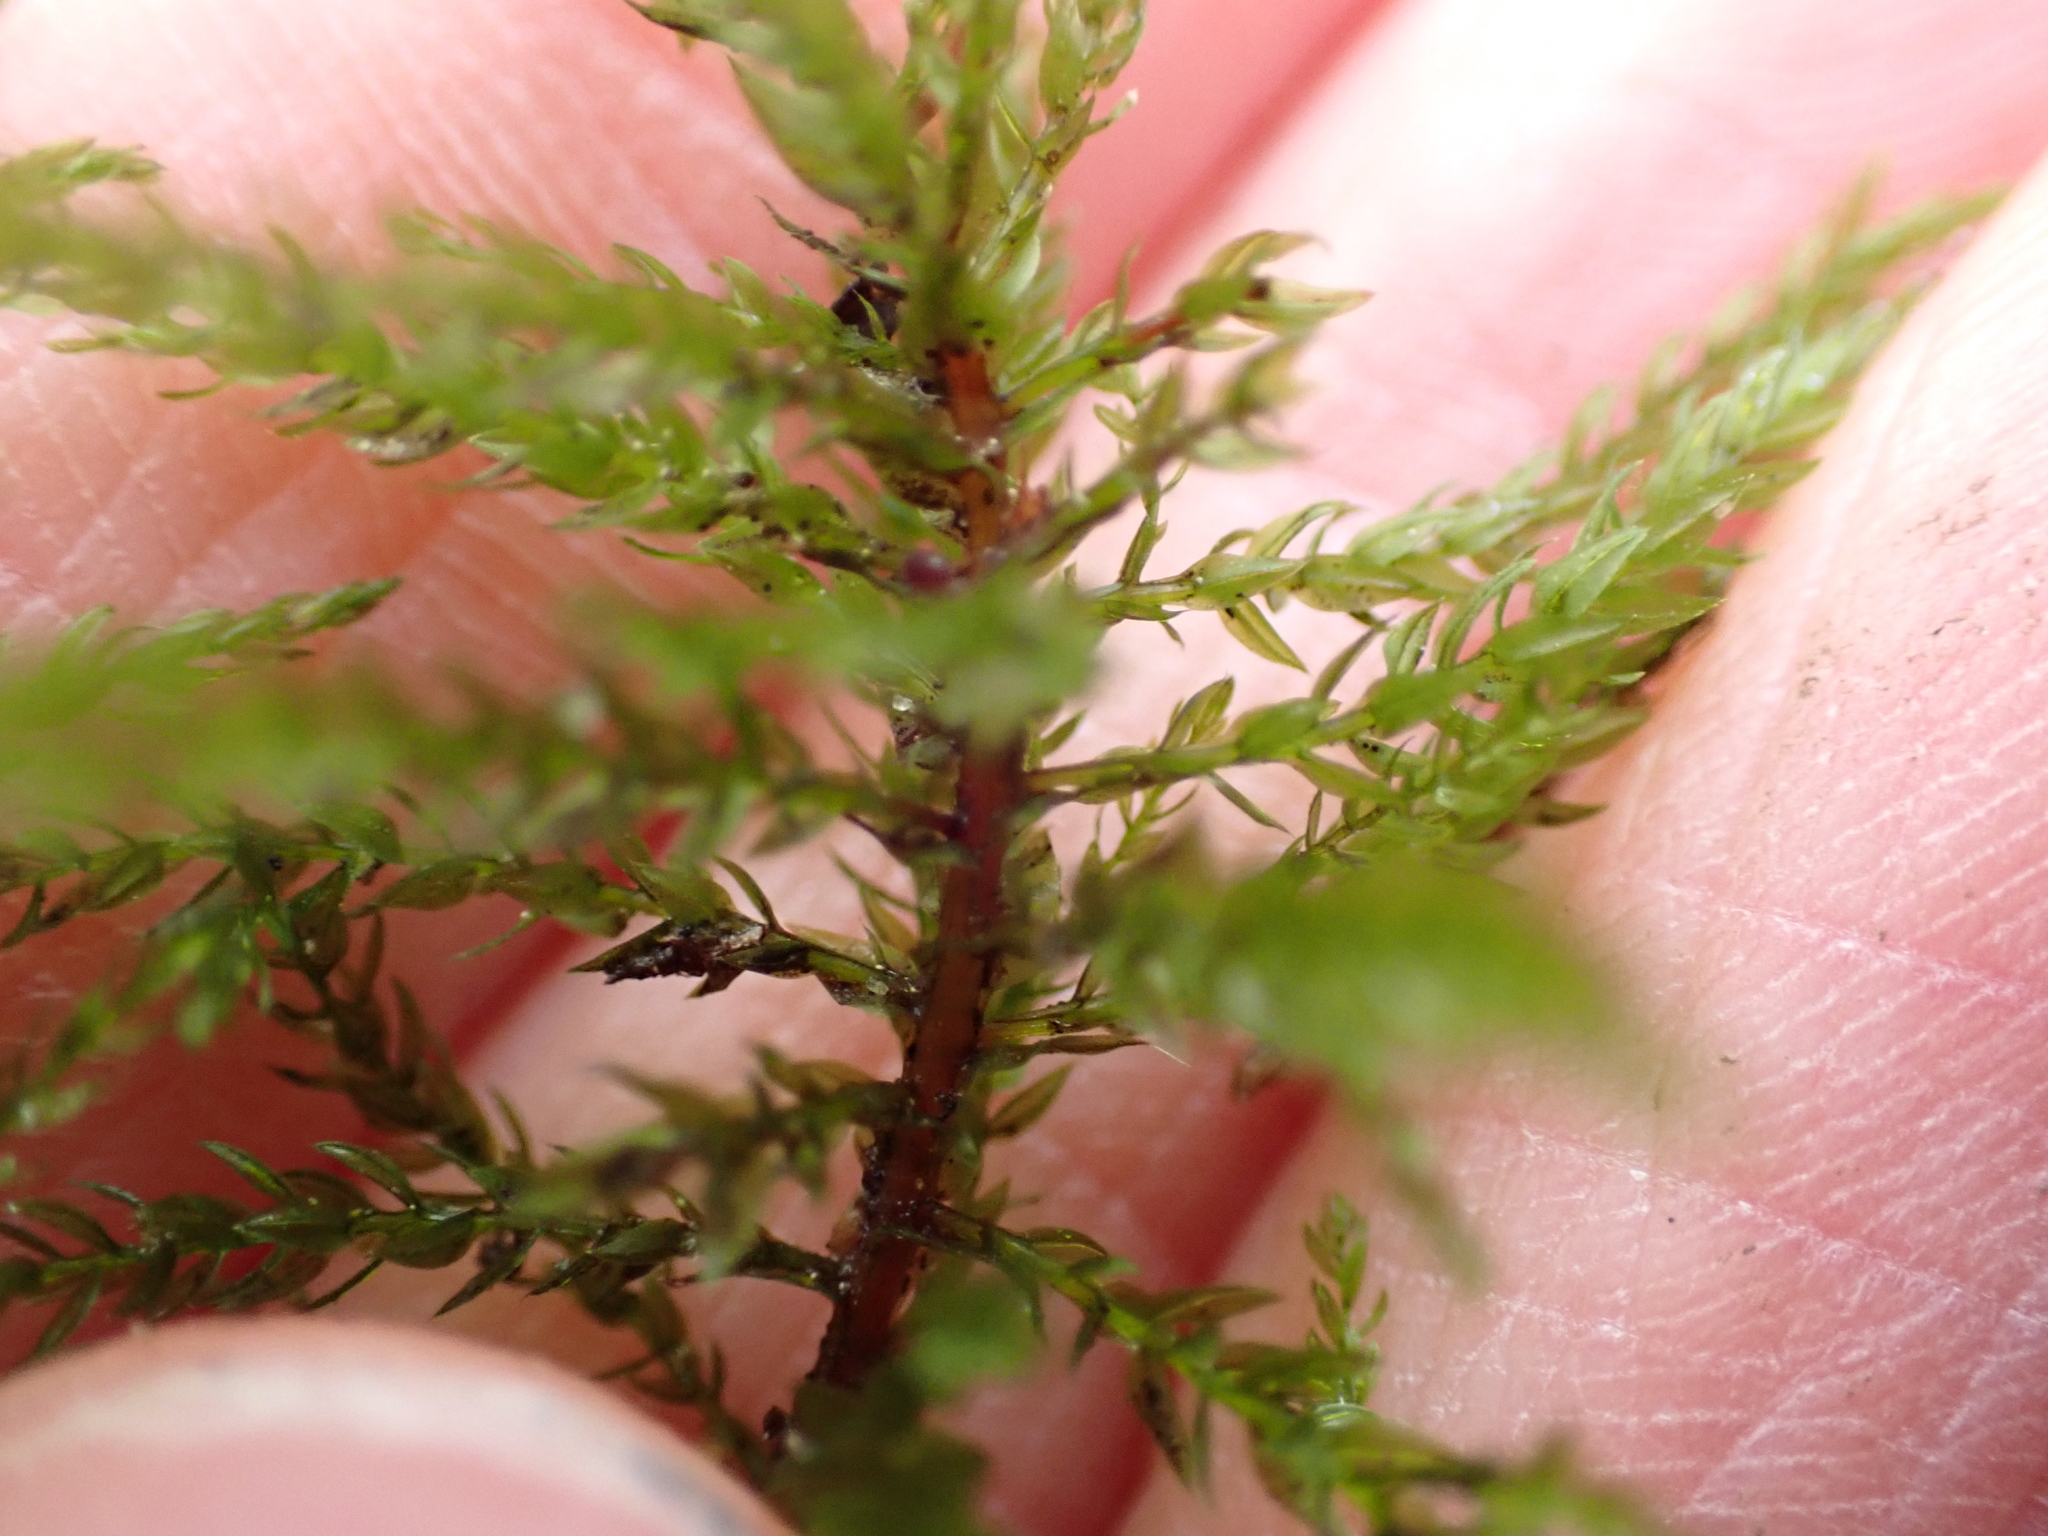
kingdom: Plantae
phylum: Bryophyta
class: Bryopsida
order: Bryales
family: Mniaceae
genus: Leucolepis
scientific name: Leucolepis acanthoneura
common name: Leucolepis umbrella moss
